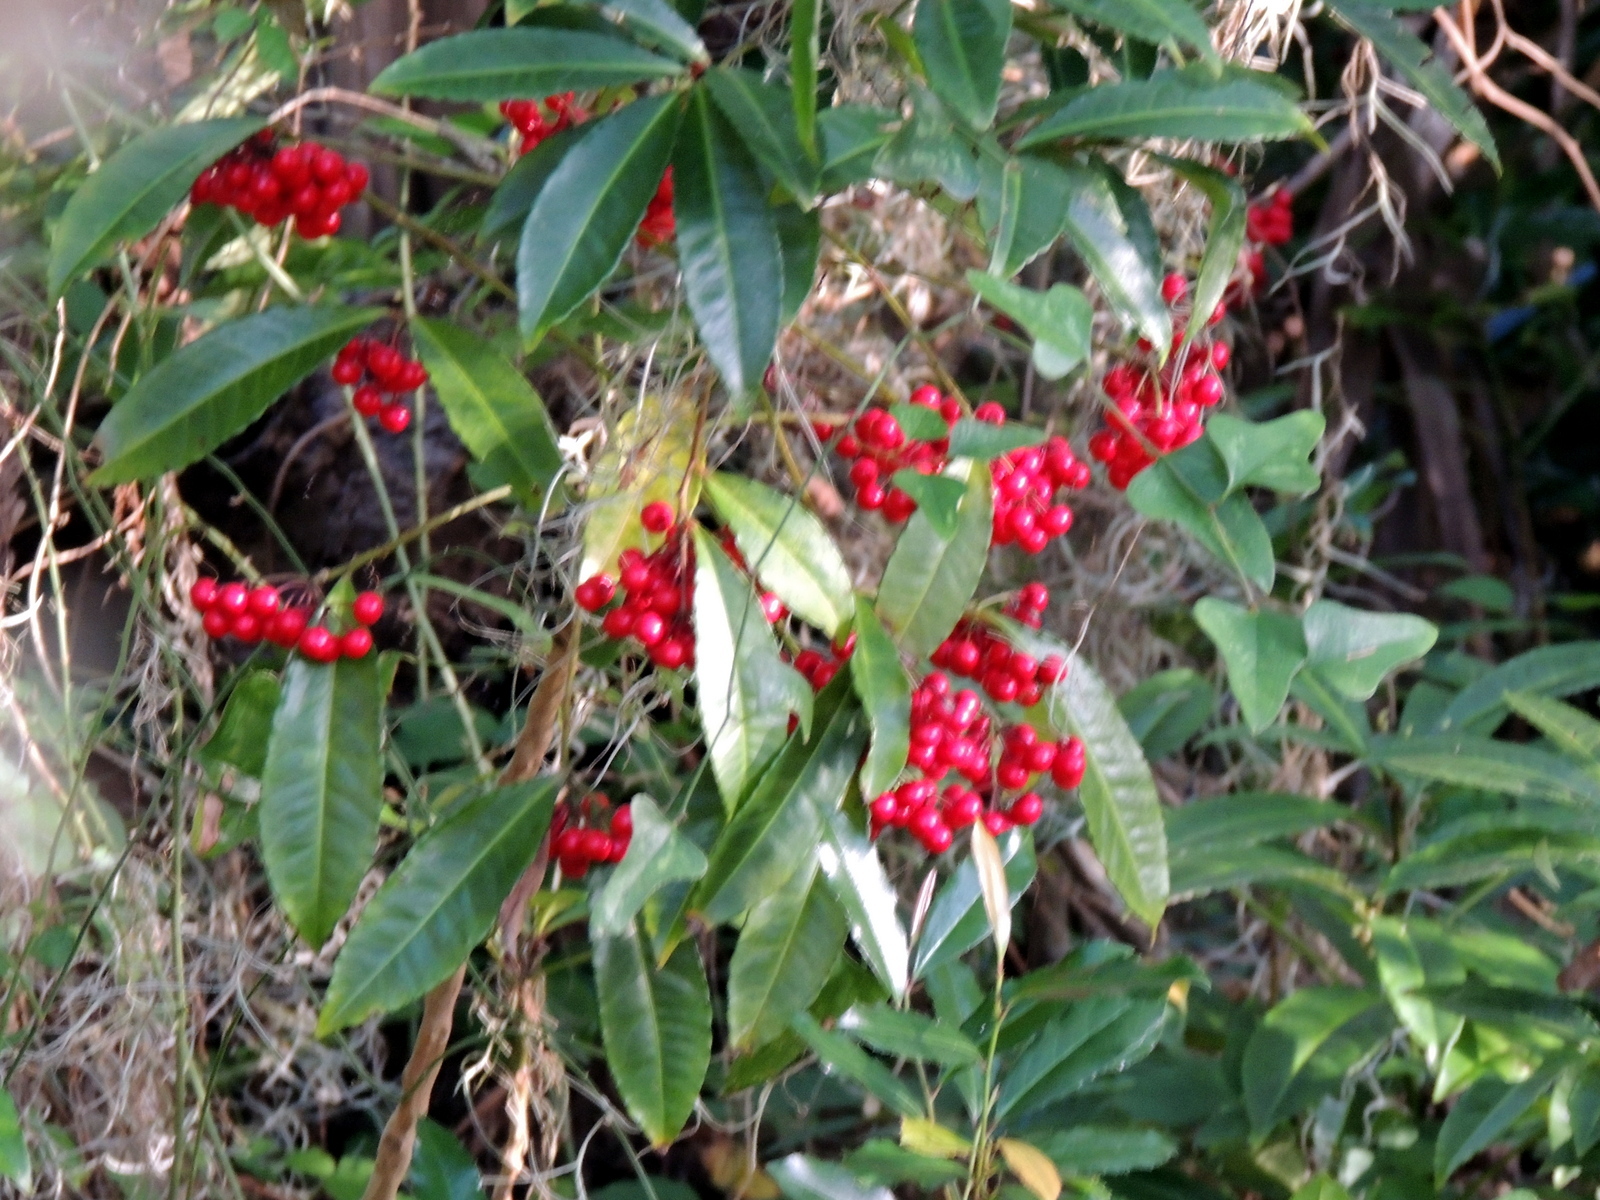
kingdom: Plantae
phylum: Tracheophyta
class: Magnoliopsida
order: Ericales
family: Primulaceae
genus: Ardisia
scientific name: Ardisia crenata
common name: Hen's eyes
